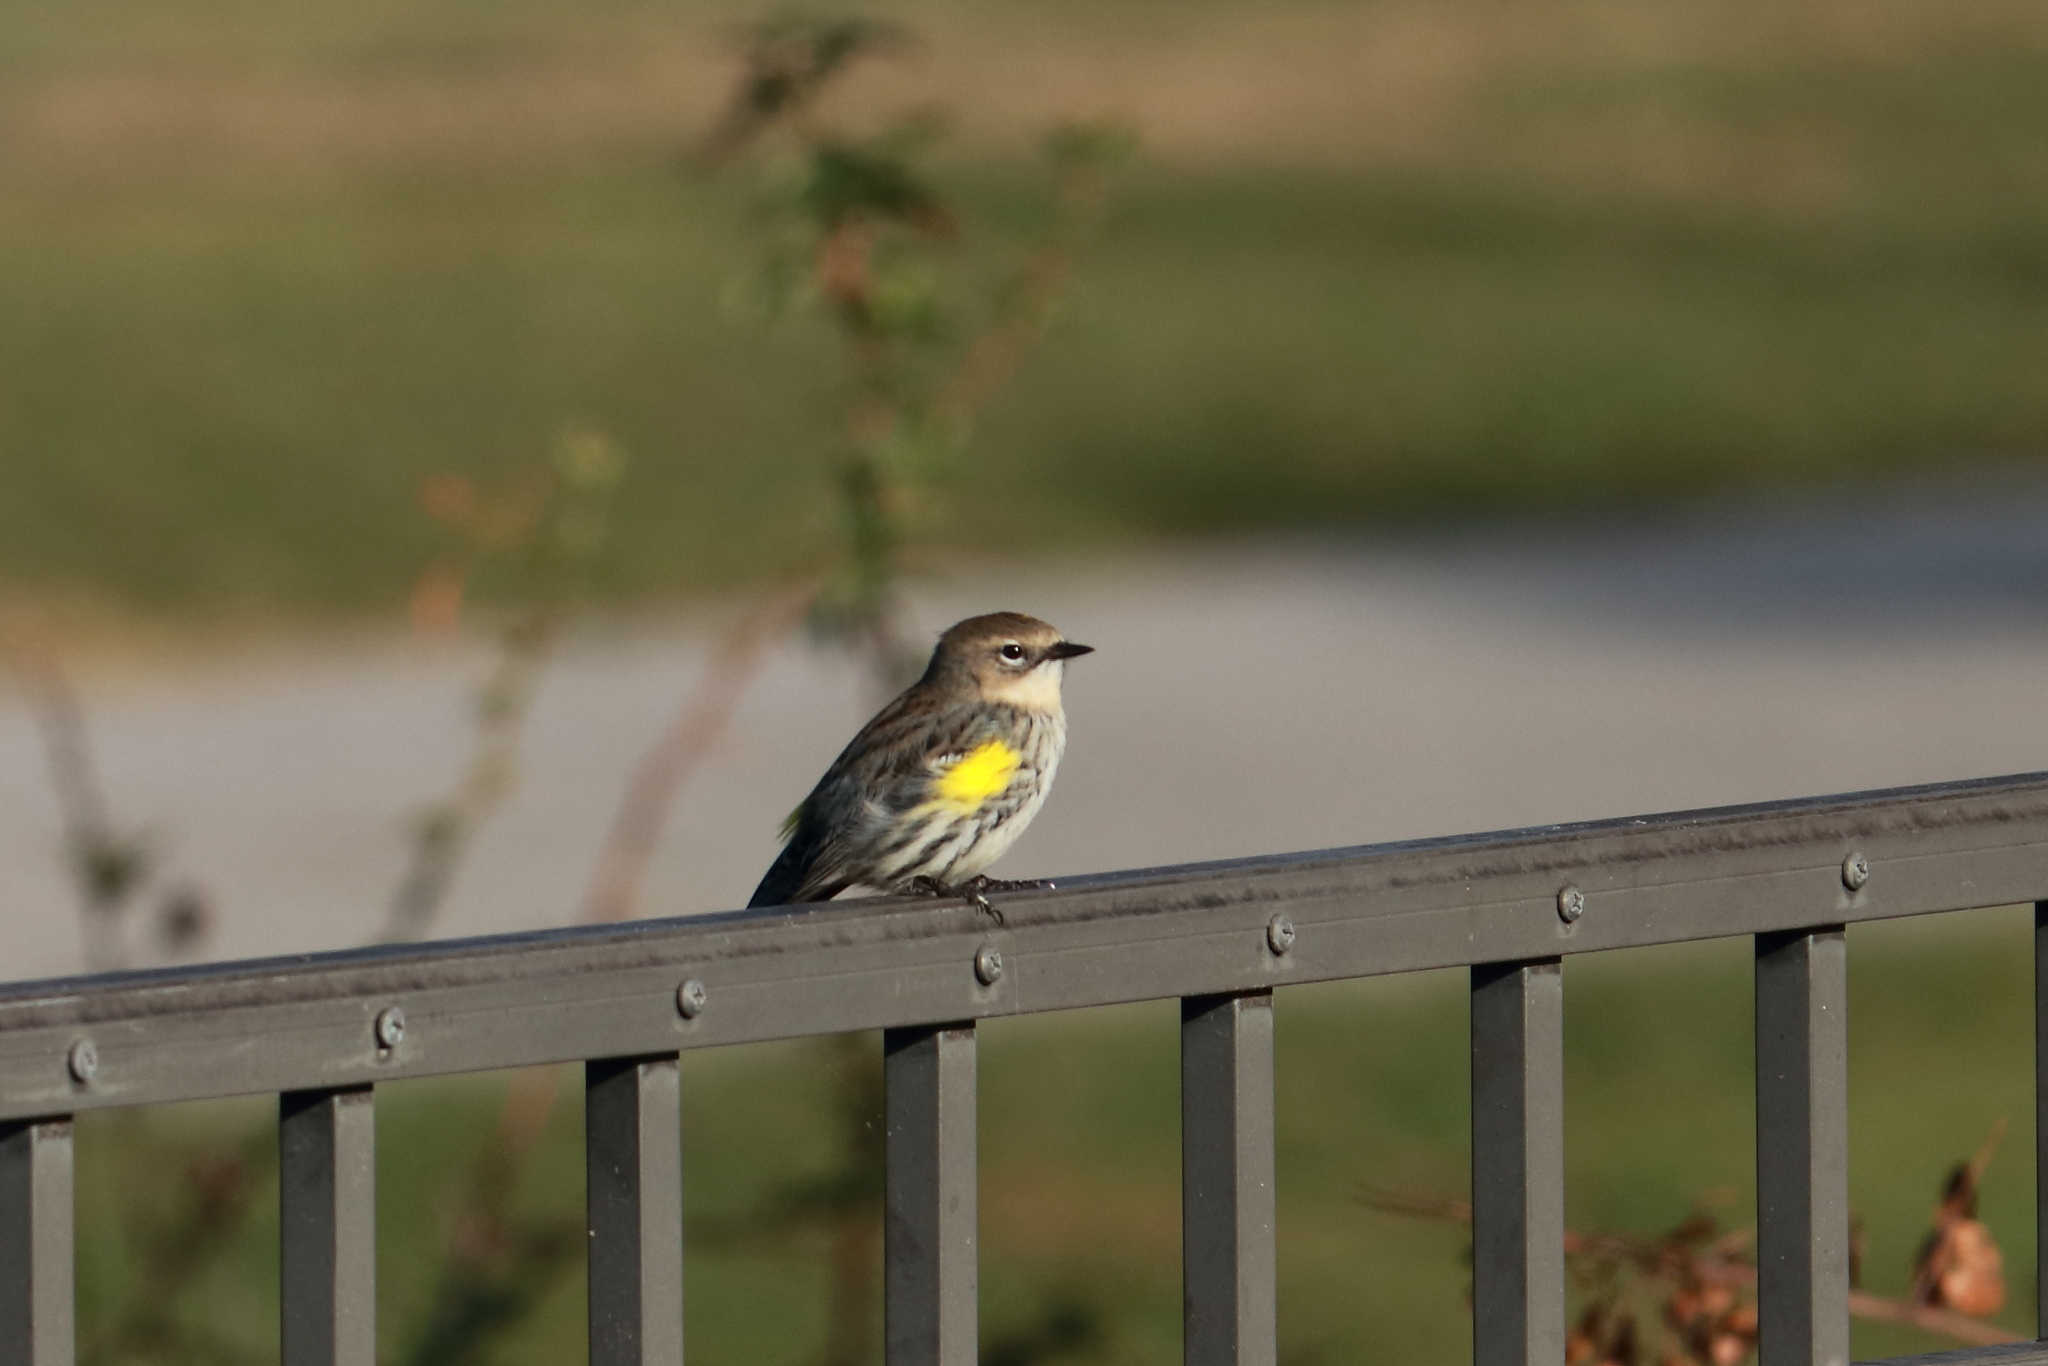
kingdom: Animalia
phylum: Chordata
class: Aves
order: Passeriformes
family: Parulidae
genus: Setophaga
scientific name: Setophaga coronata
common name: Myrtle warbler
